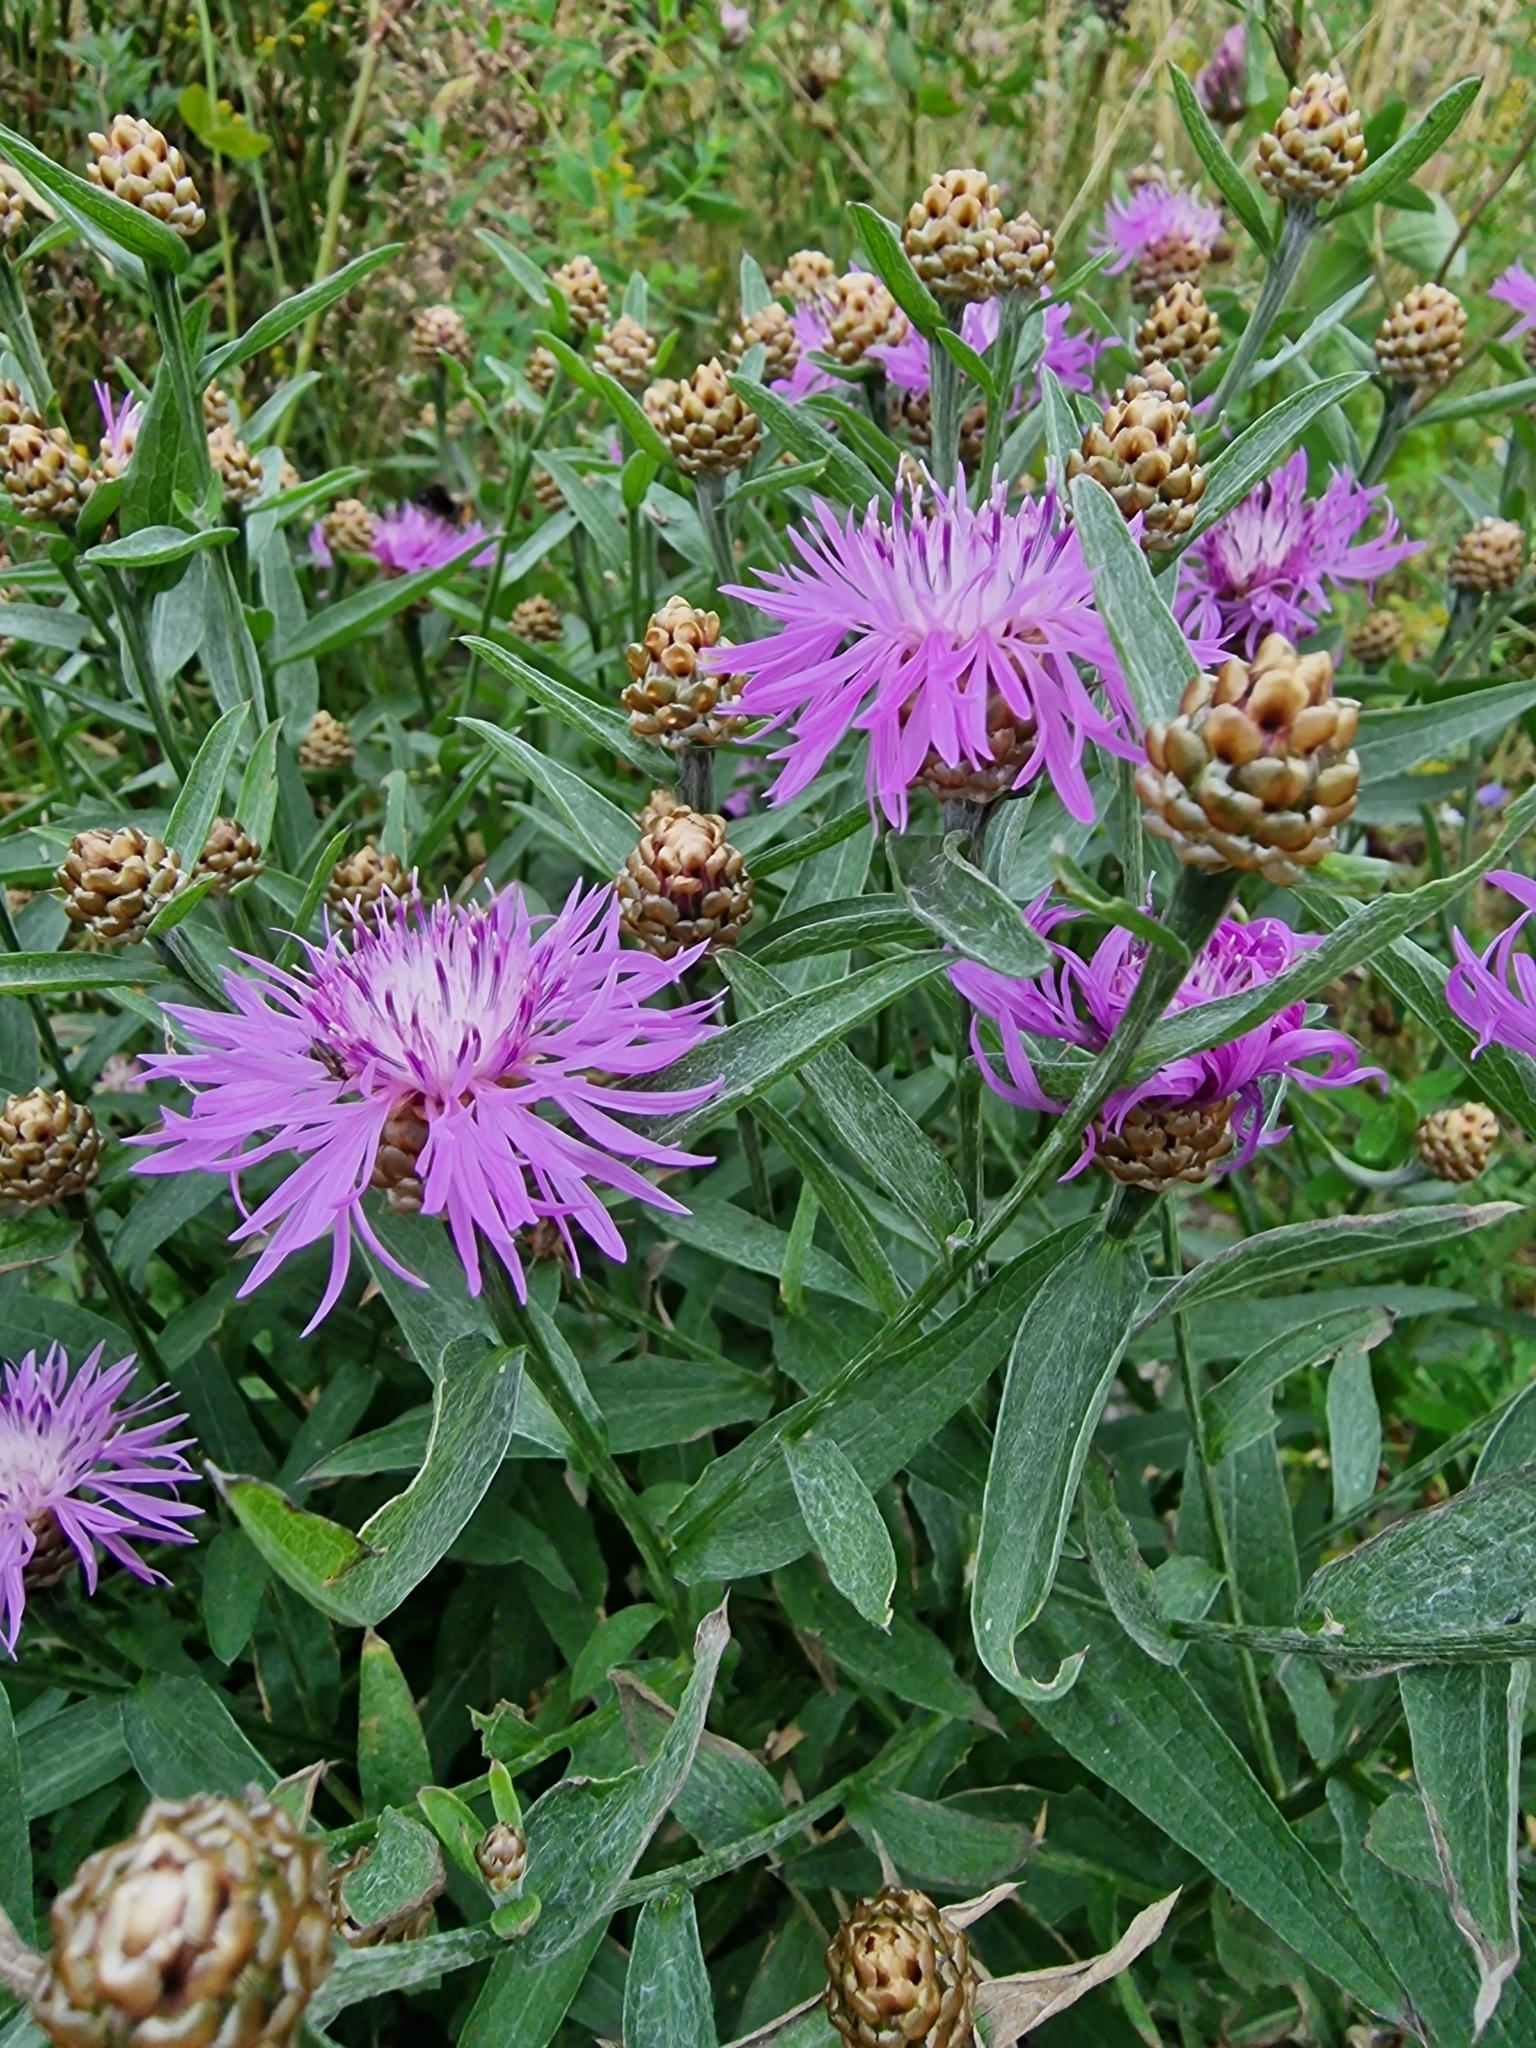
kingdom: Plantae
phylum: Tracheophyta
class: Magnoliopsida
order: Asterales
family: Asteraceae
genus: Centaurea
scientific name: Centaurea jacea
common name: Brown knapweed
